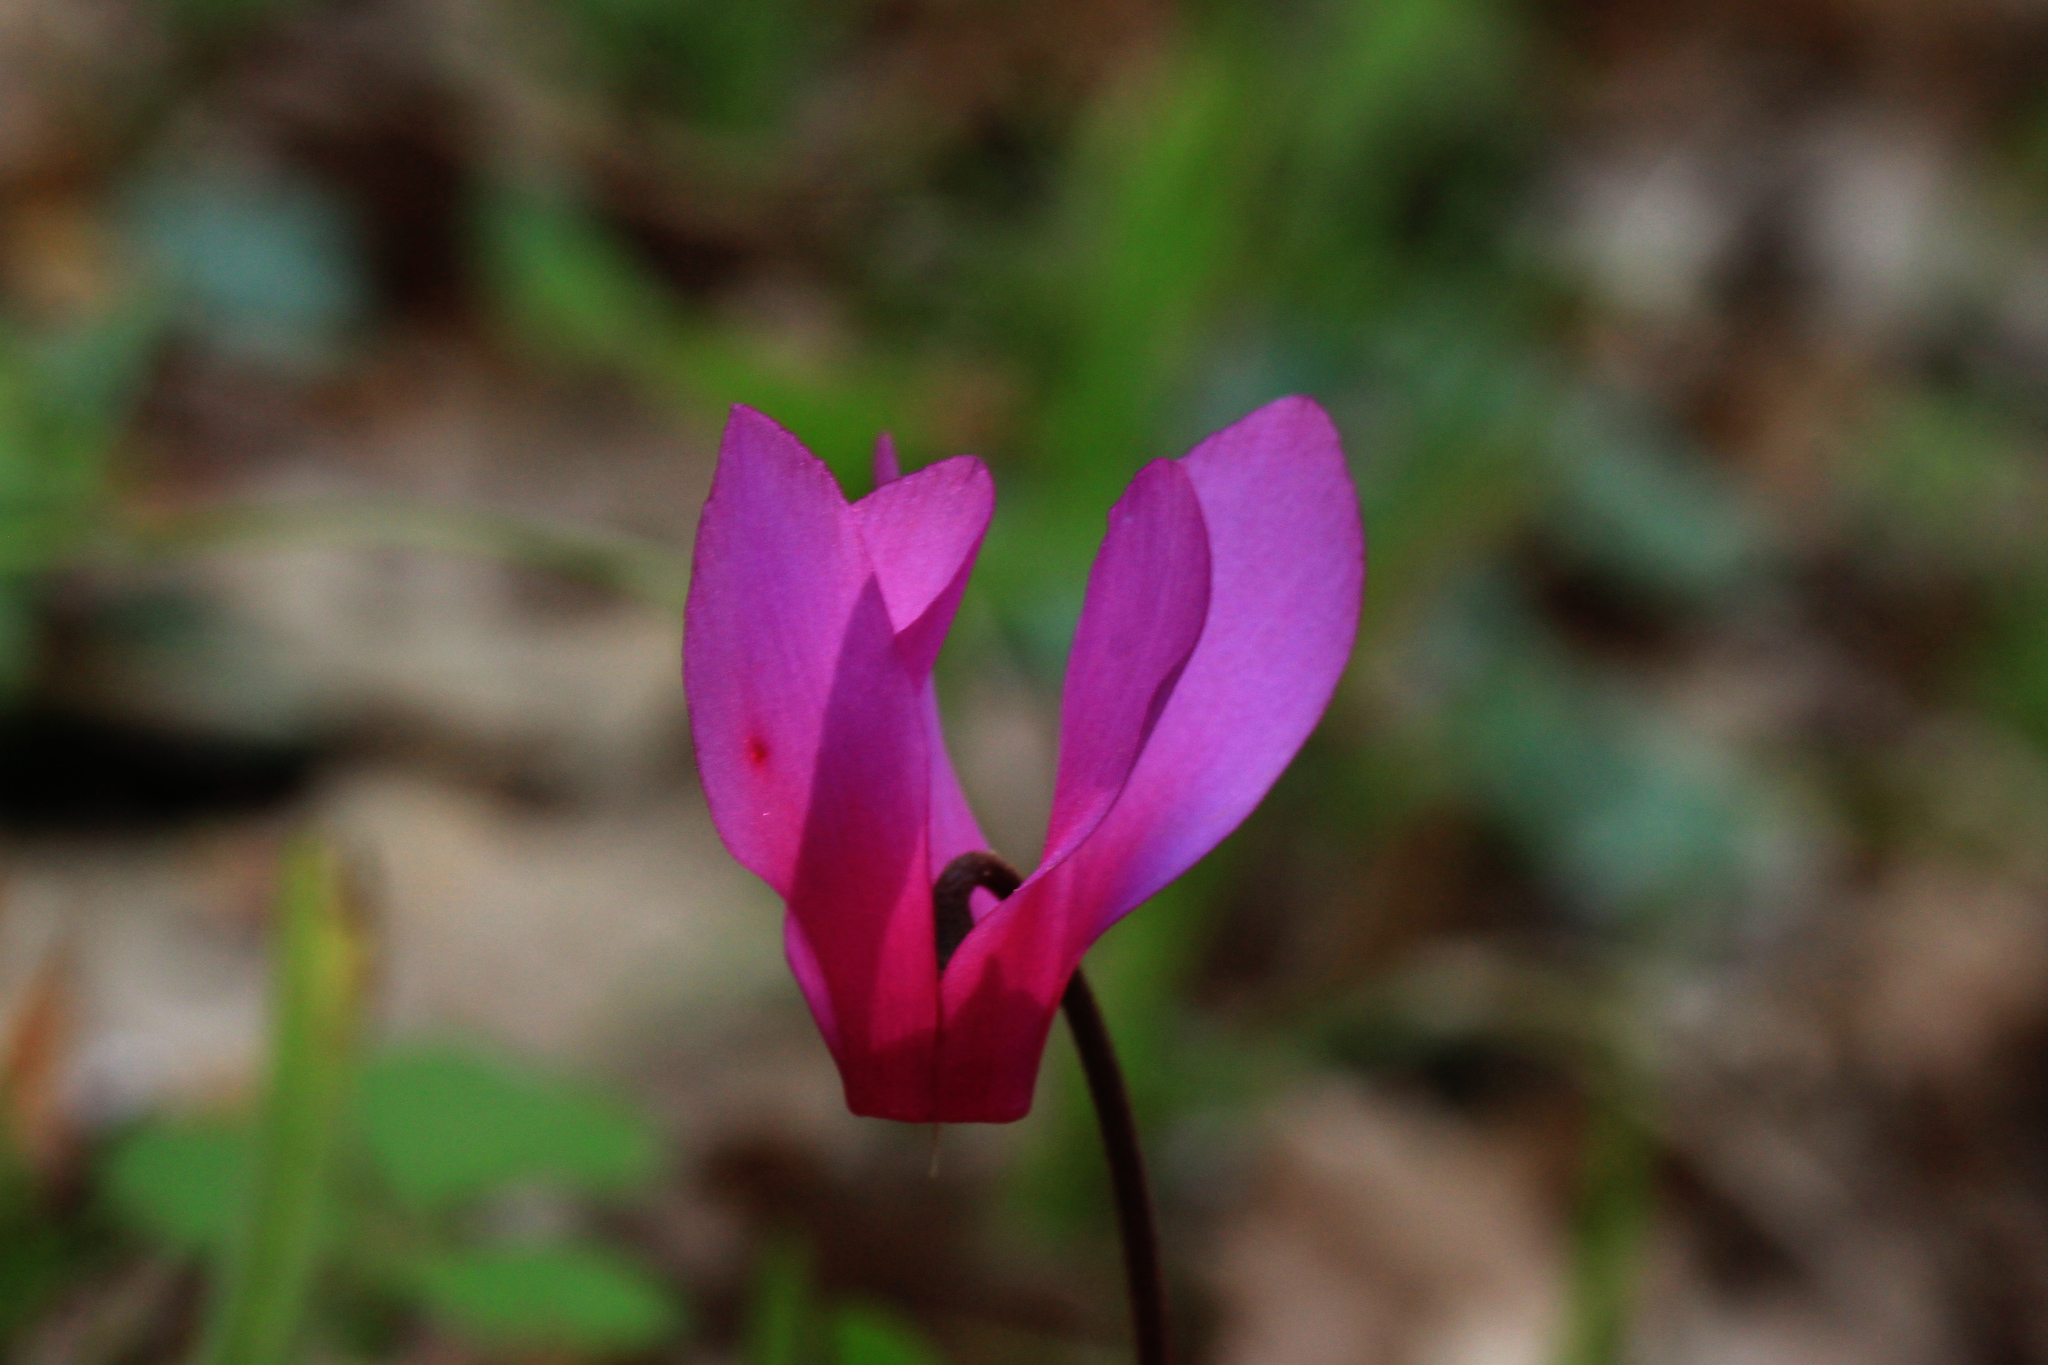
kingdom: Plantae
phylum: Tracheophyta
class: Magnoliopsida
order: Ericales
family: Primulaceae
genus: Cyclamen
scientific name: Cyclamen repandum
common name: Spring sowbread
